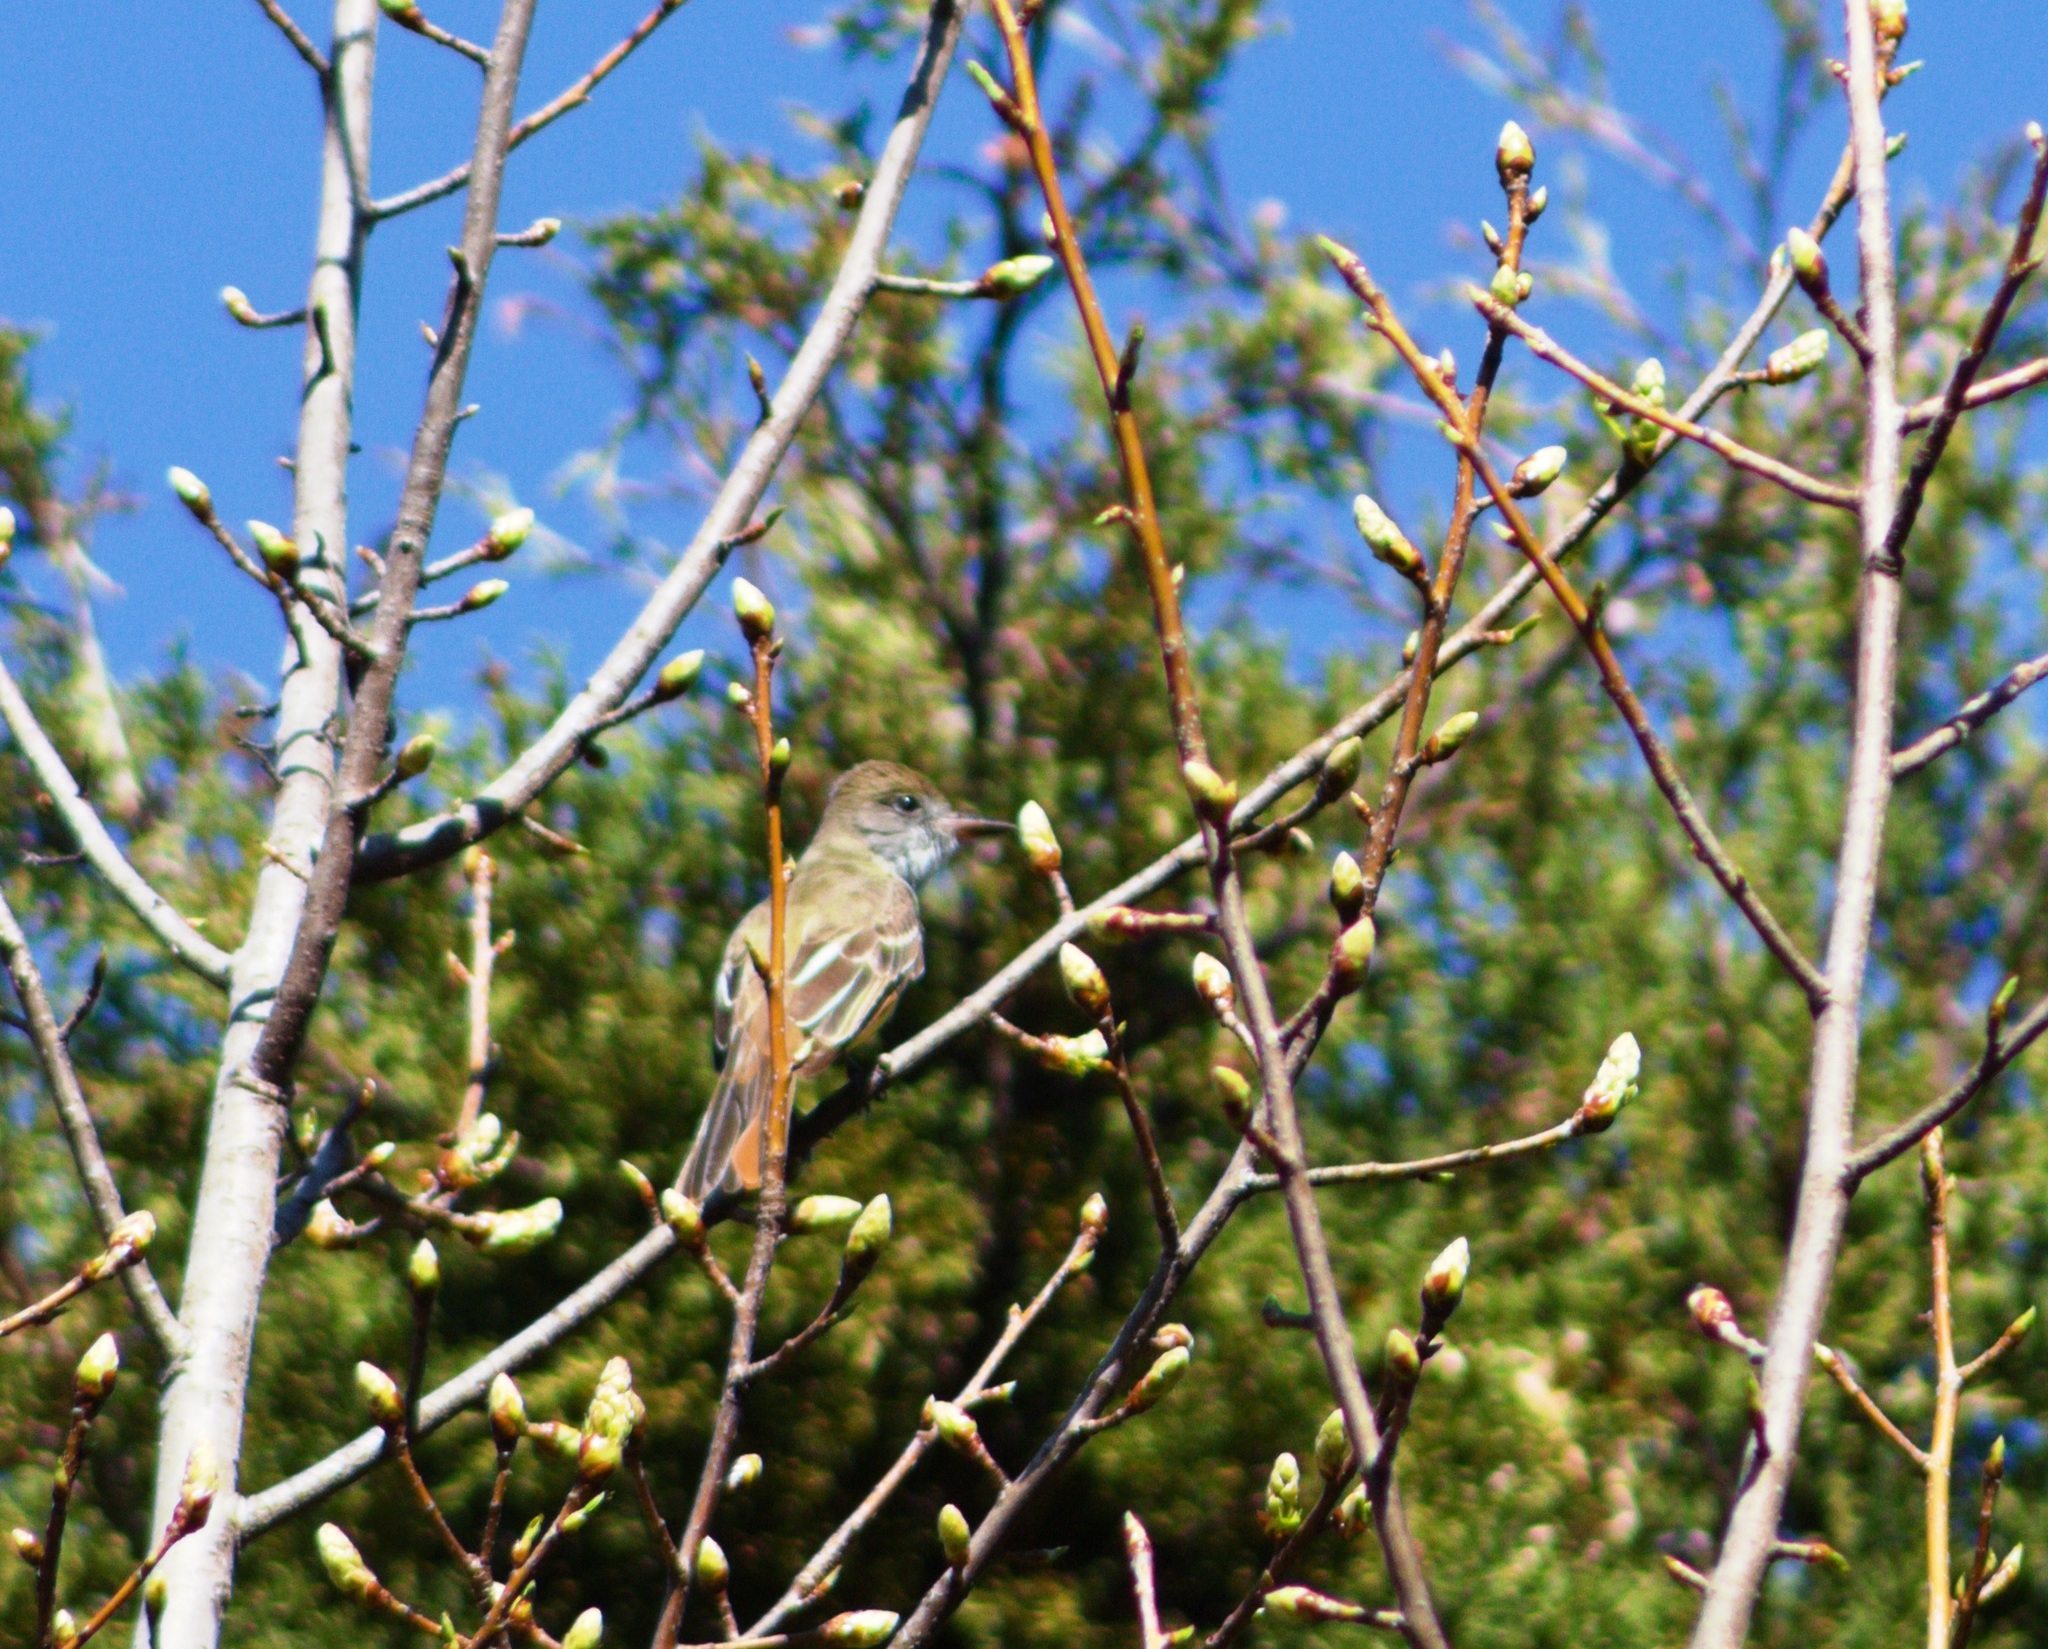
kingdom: Animalia
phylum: Chordata
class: Aves
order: Passeriformes
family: Tyrannidae
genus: Myiarchus
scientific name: Myiarchus crinitus
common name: Great crested flycatcher
